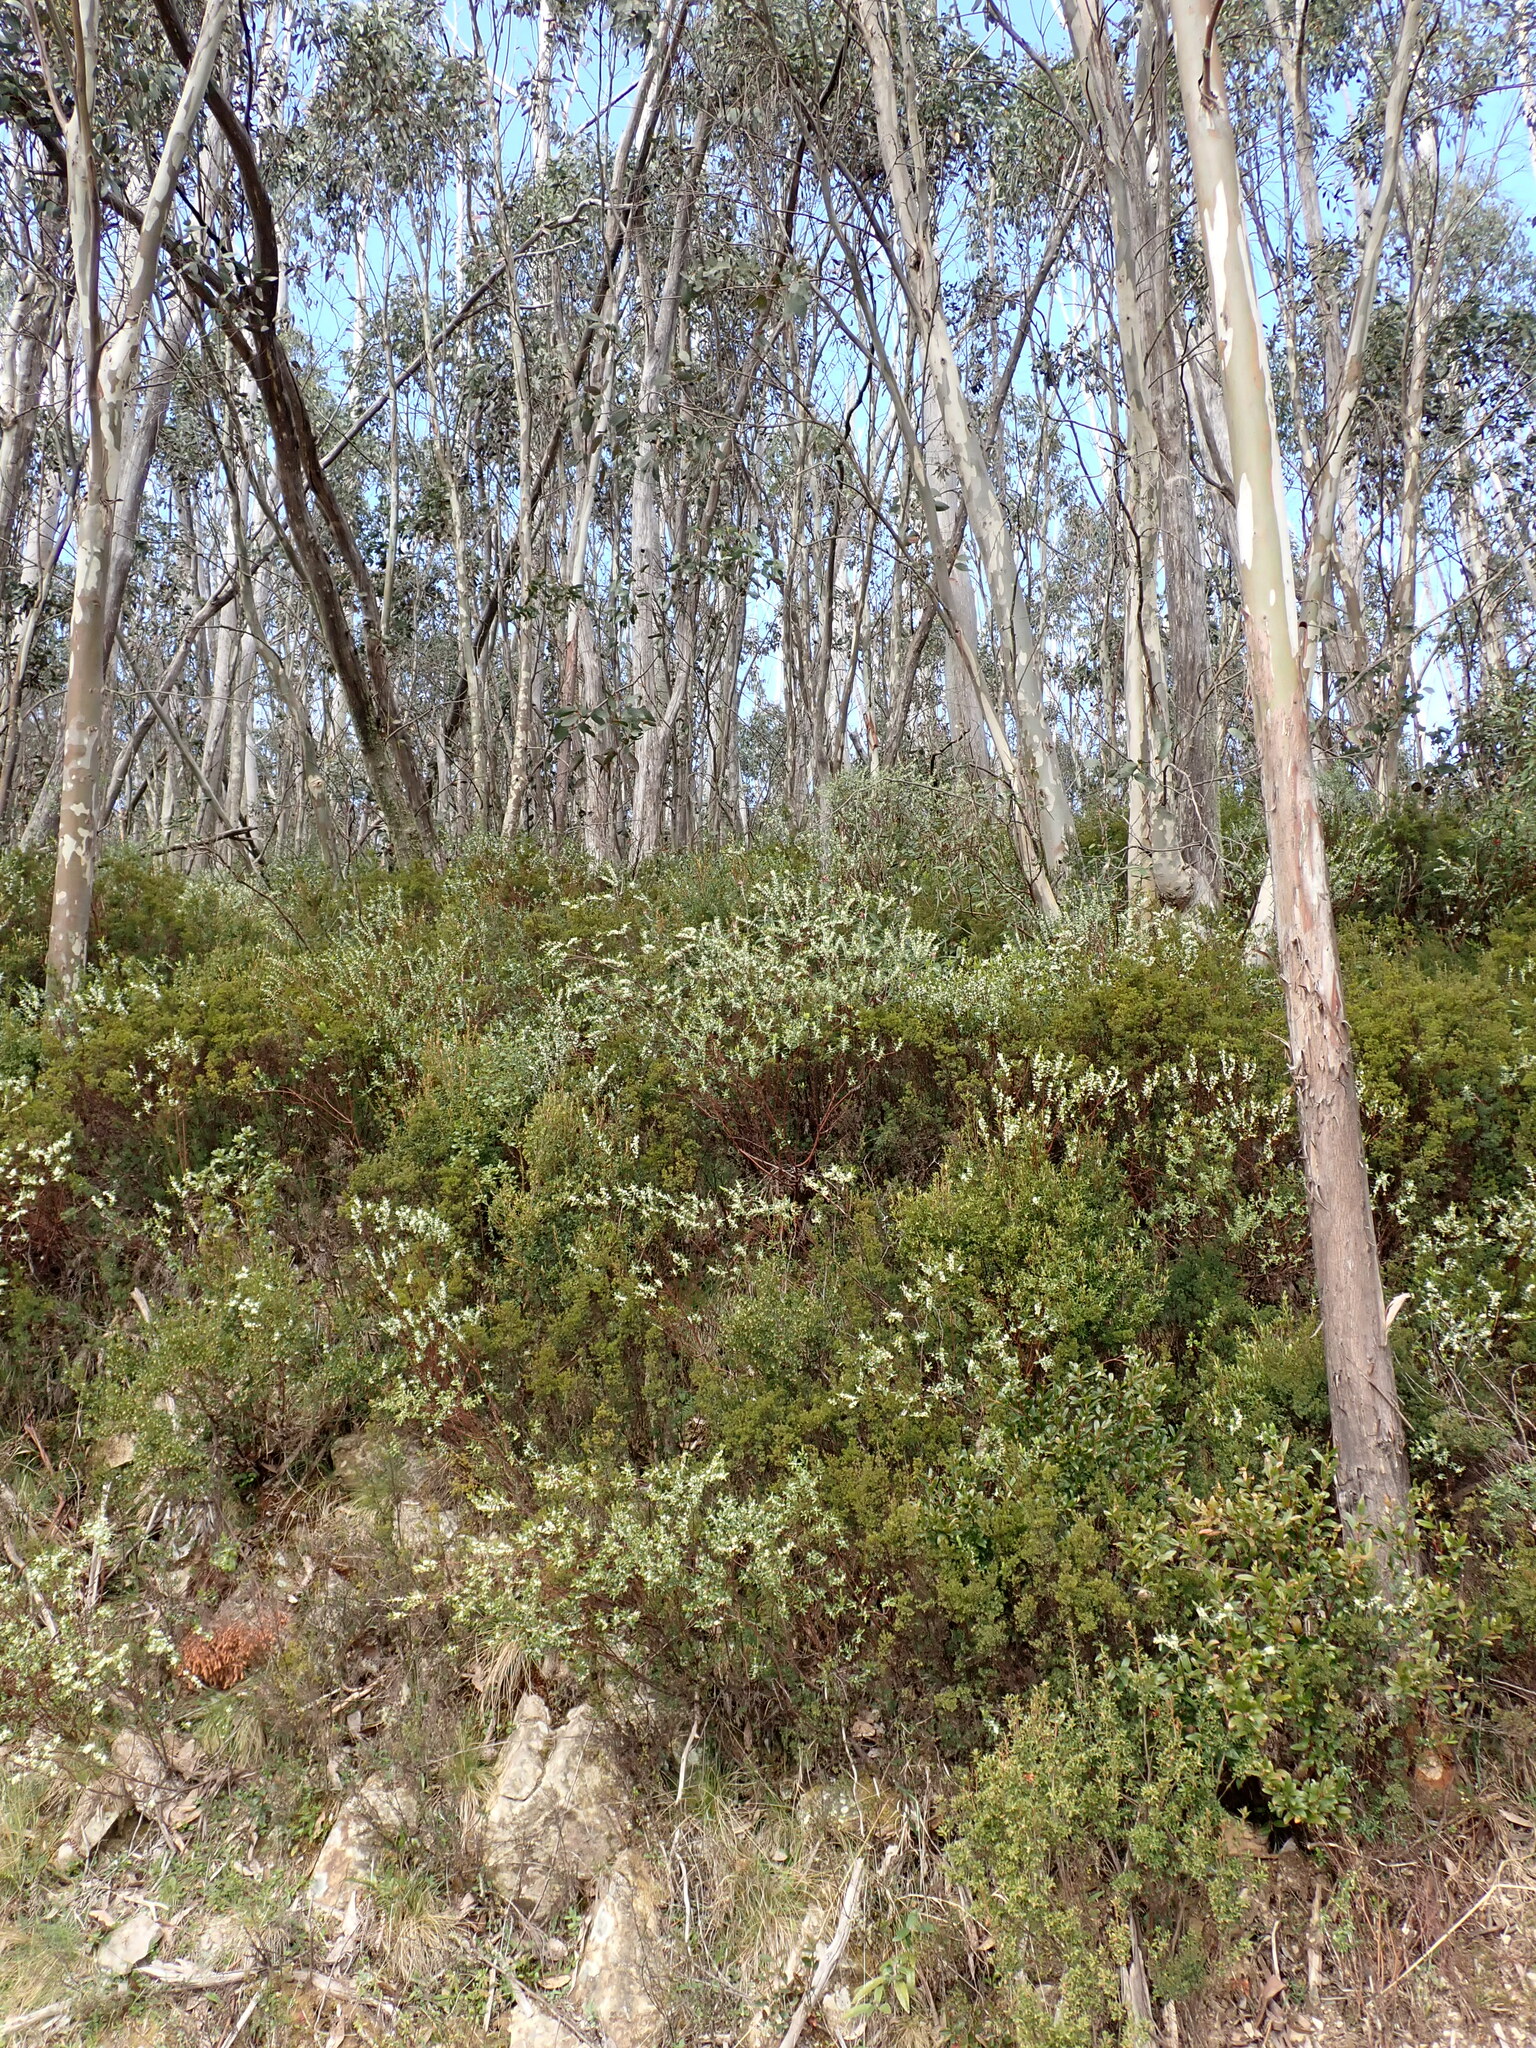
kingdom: Plantae
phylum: Tracheophyta
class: Magnoliopsida
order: Malvales
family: Thymelaeaceae
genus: Pimelea
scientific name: Pimelea axiflora
